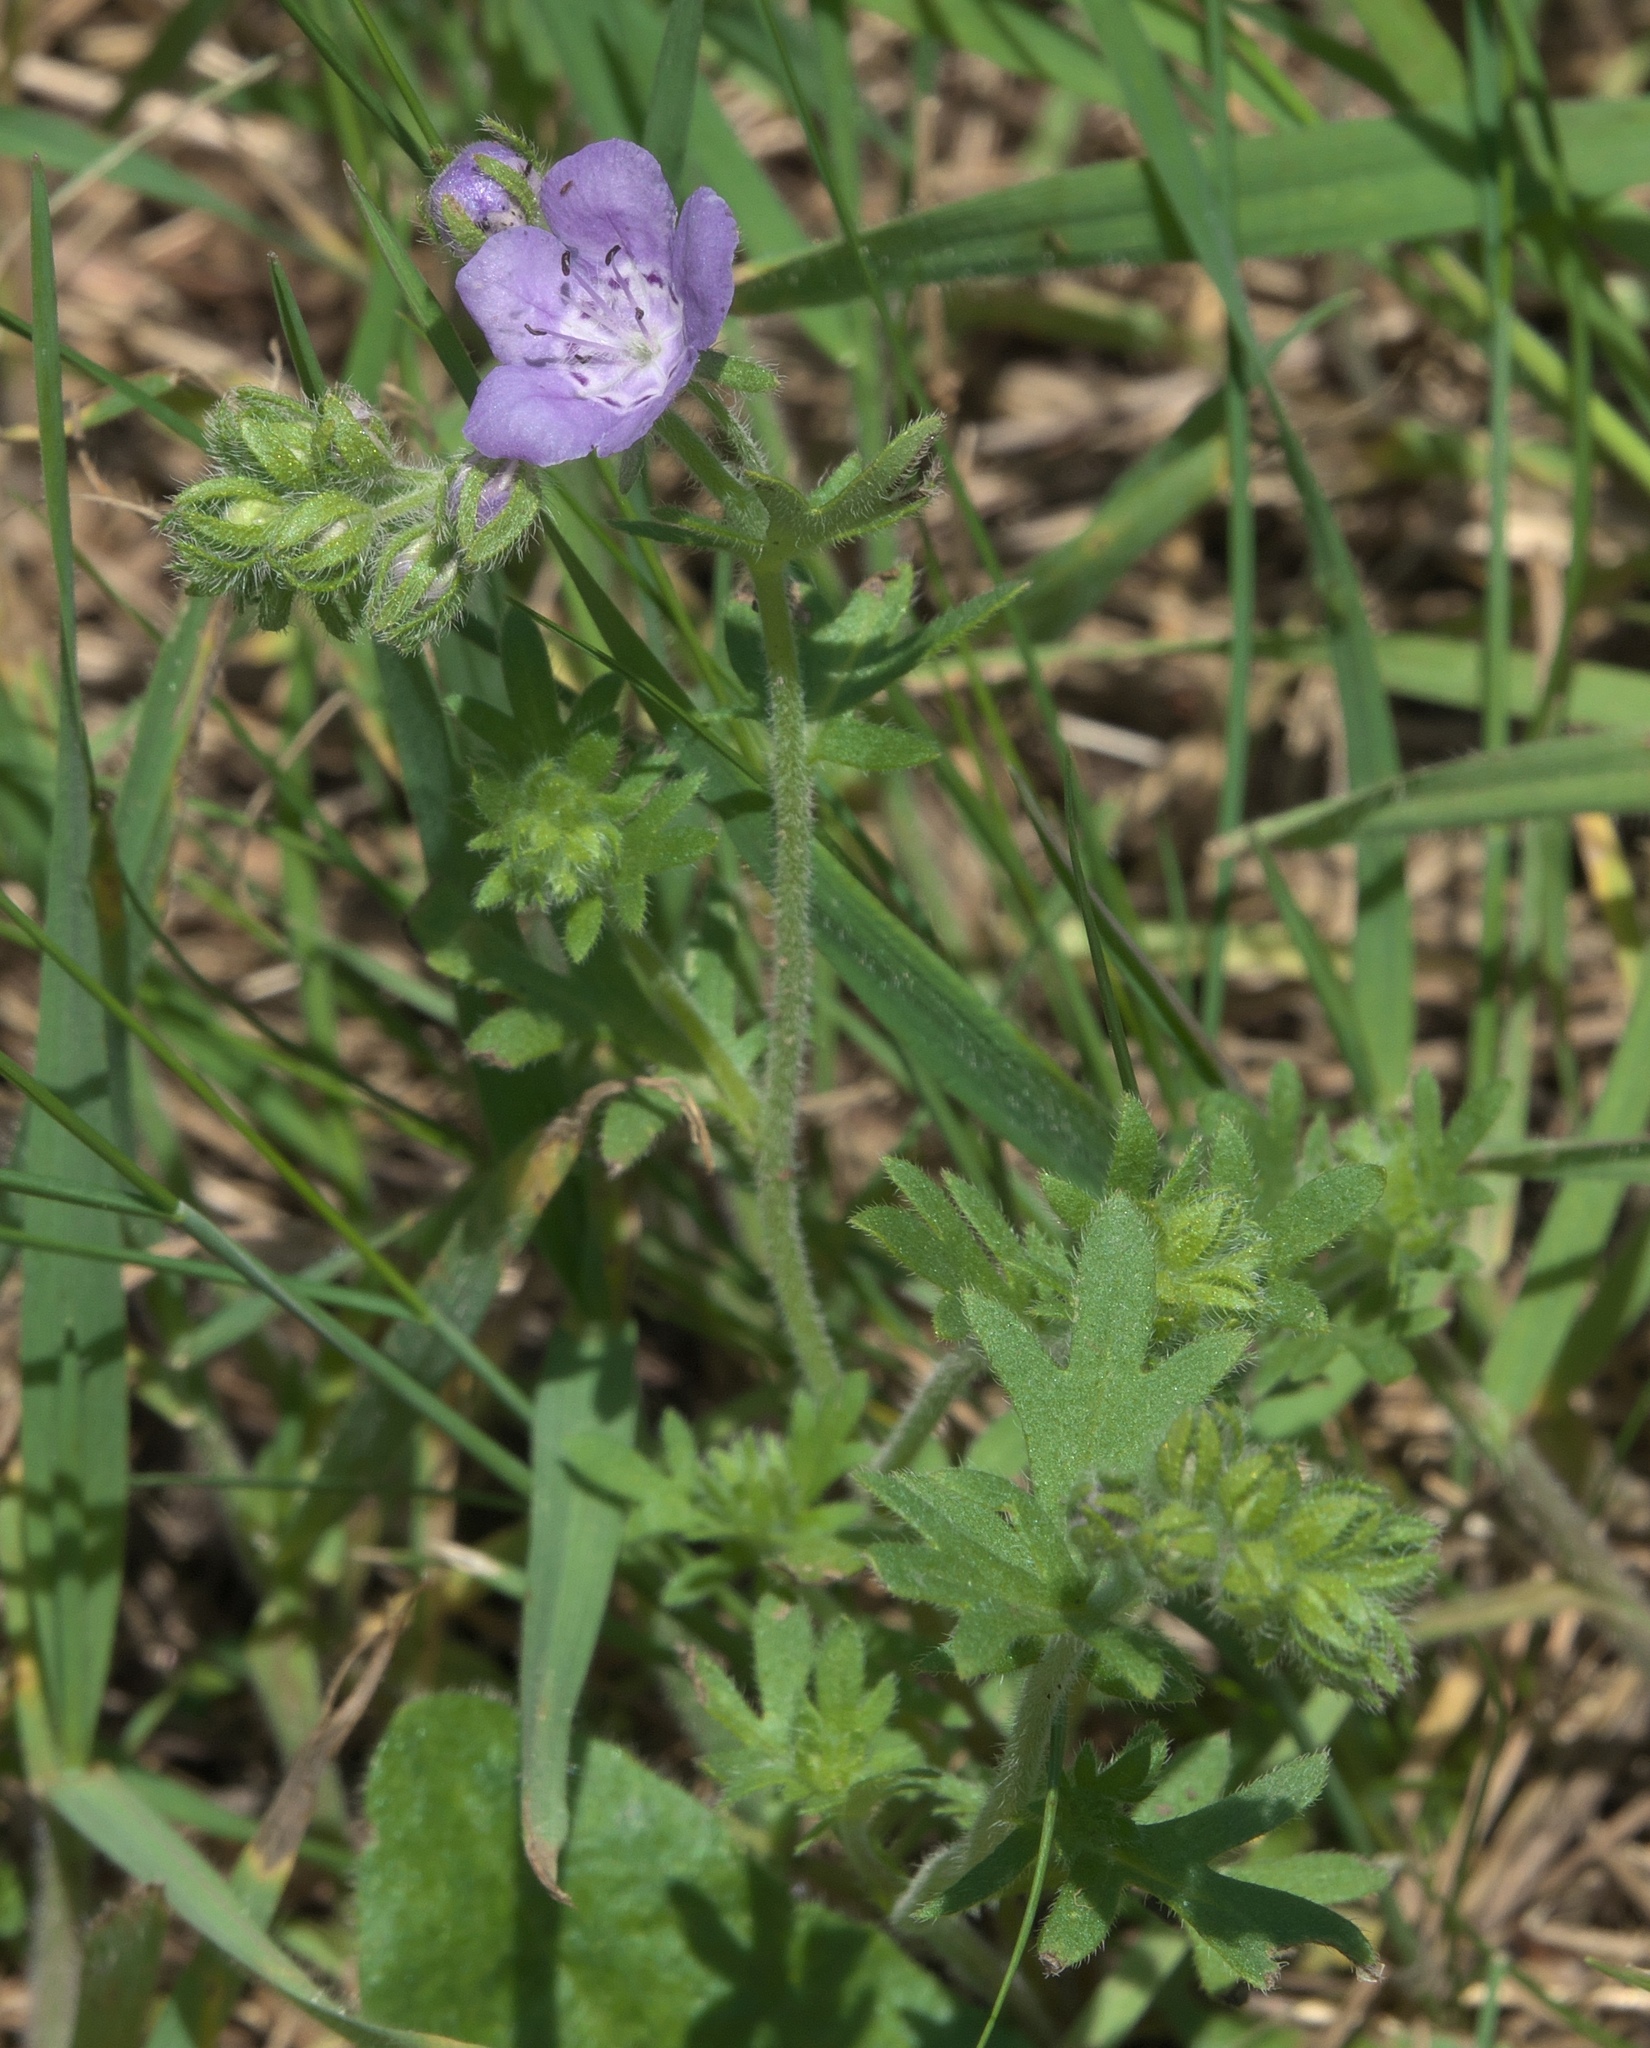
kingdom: Plantae
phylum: Tracheophyta
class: Magnoliopsida
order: Boraginales
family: Hydrophyllaceae
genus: Phacelia
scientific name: Phacelia hirsuta
